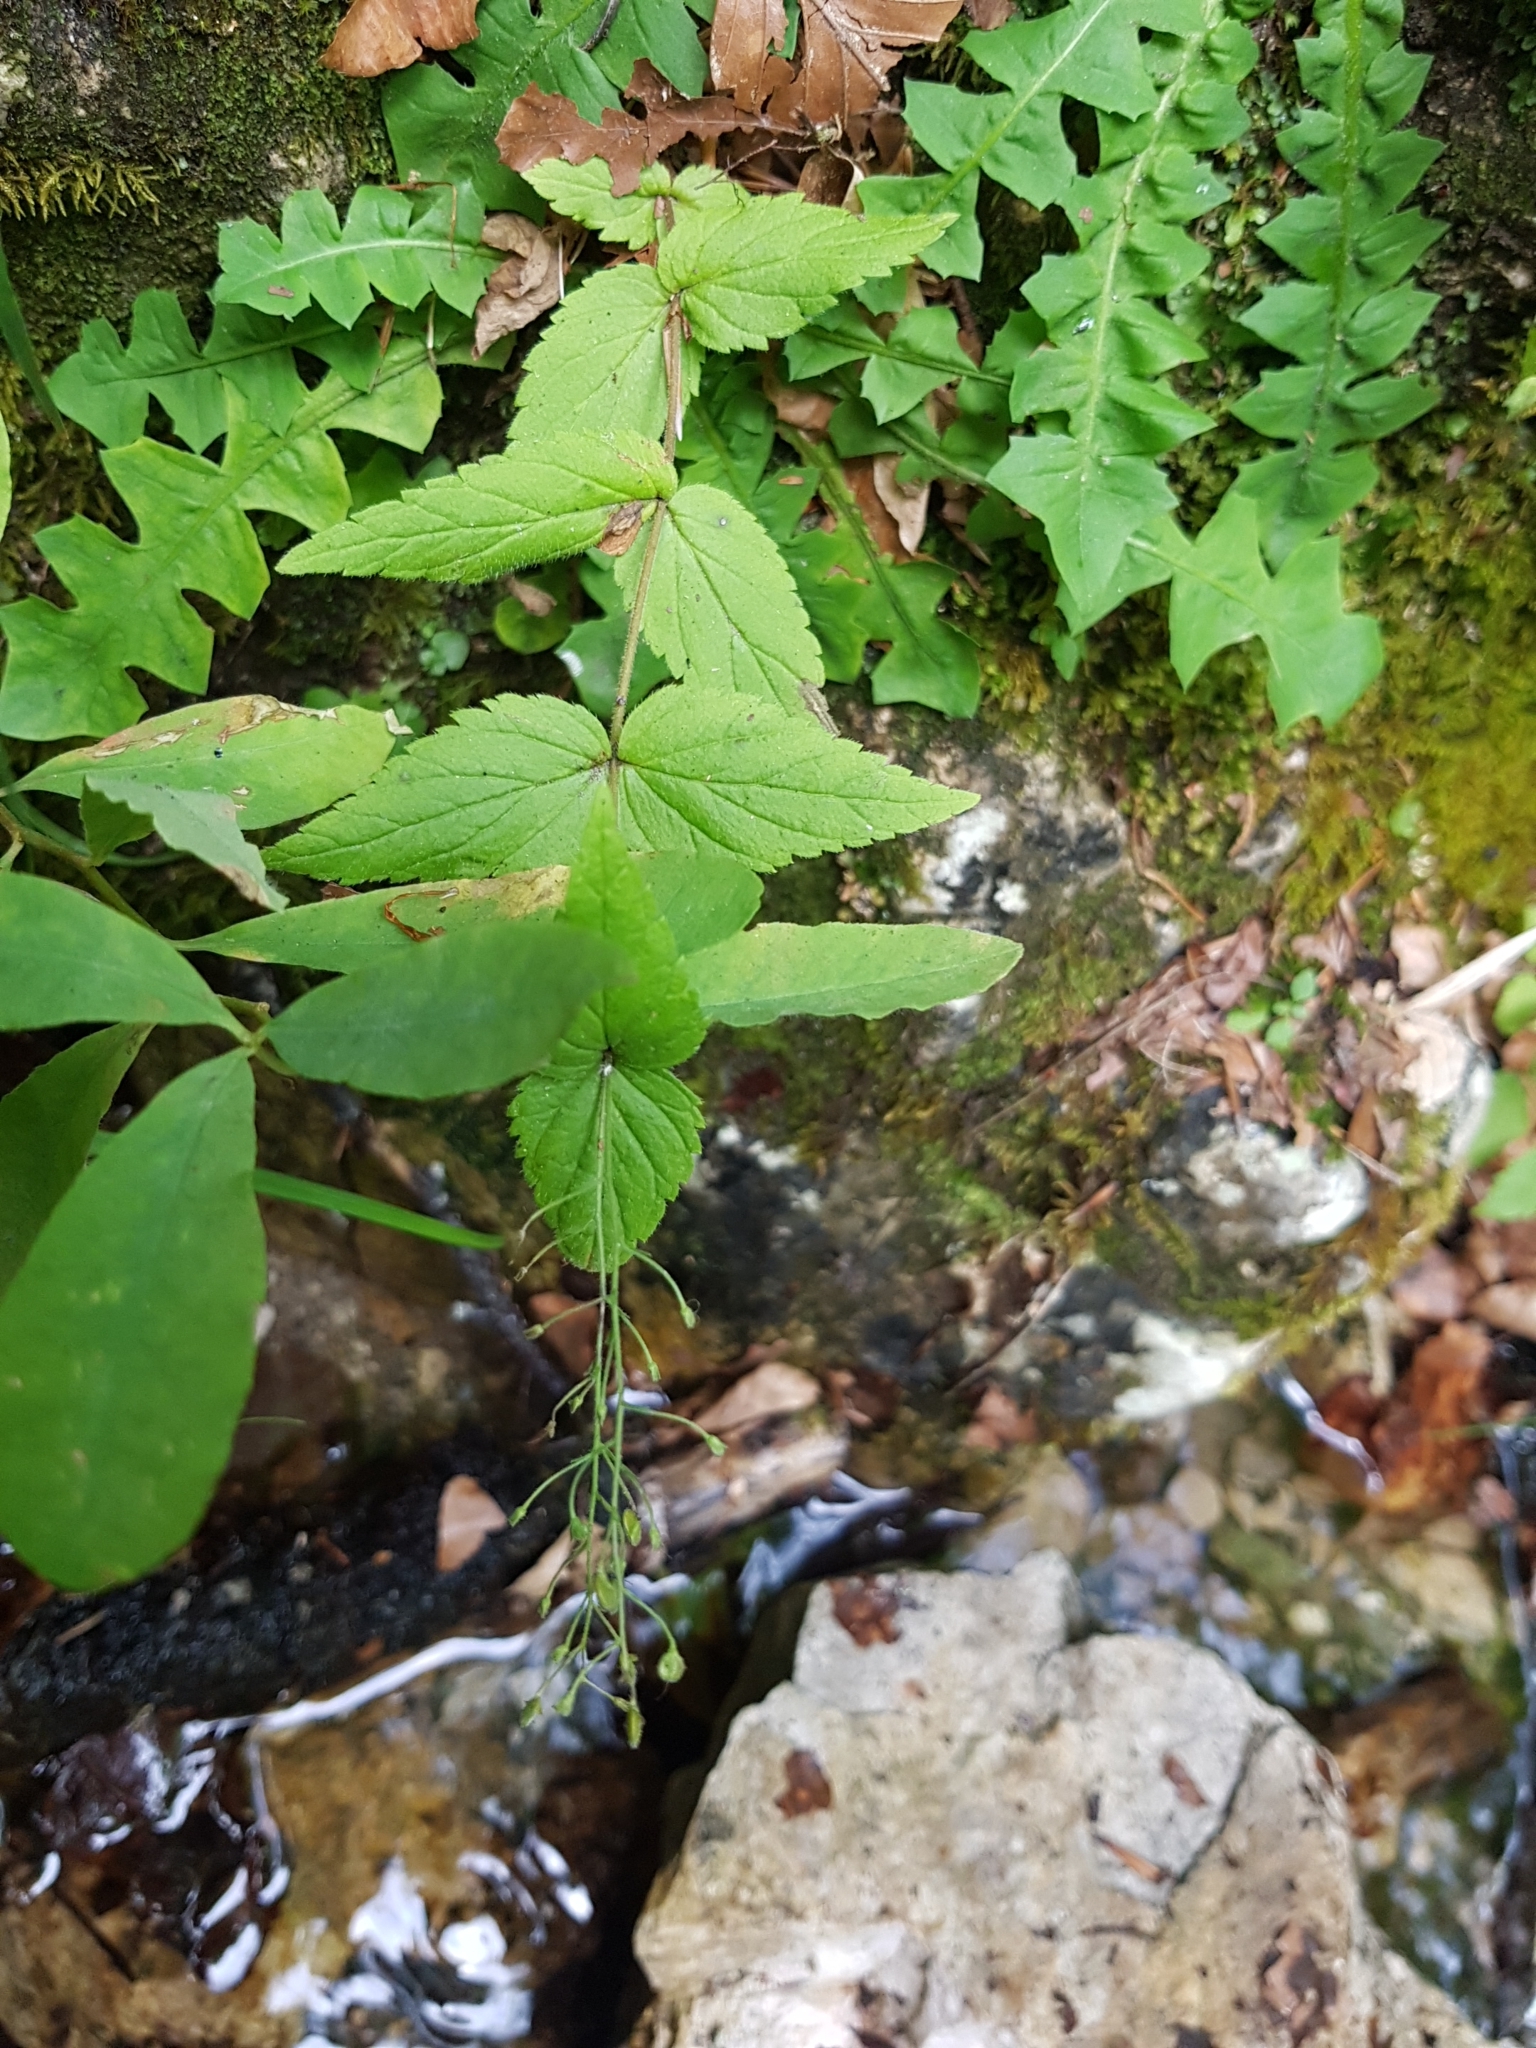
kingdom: Plantae
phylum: Tracheophyta
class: Magnoliopsida
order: Lamiales
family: Plantaginaceae
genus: Veronica
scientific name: Veronica urticifolia
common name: Nettle-leaf speedwell
